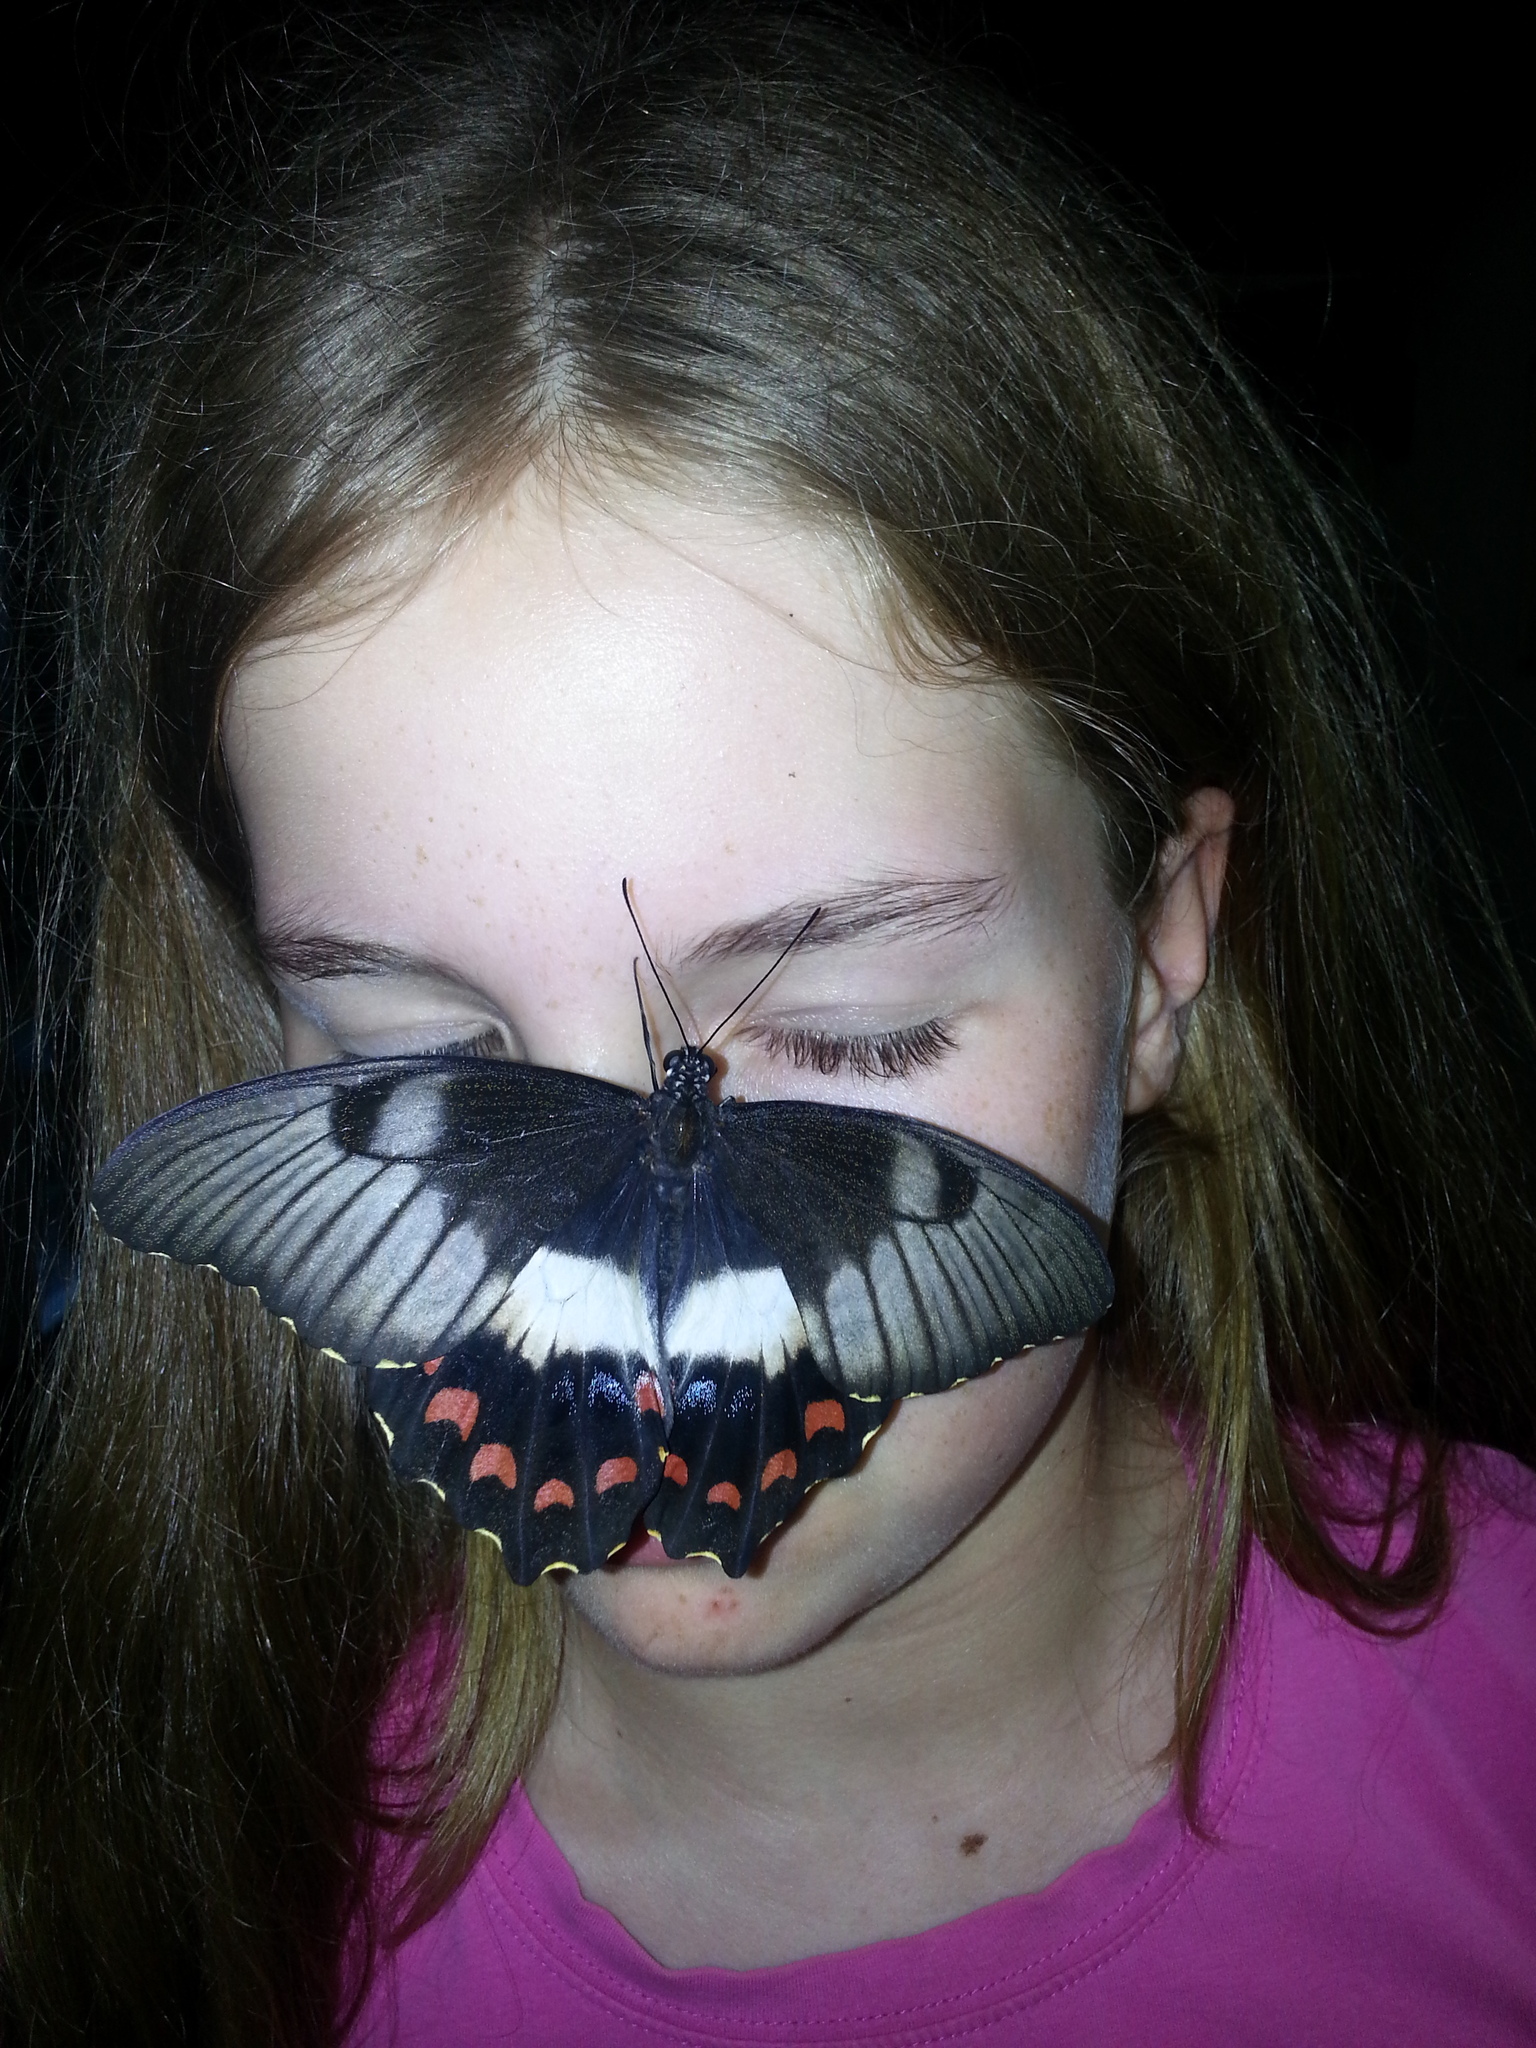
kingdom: Animalia
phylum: Arthropoda
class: Insecta
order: Lepidoptera
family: Papilionidae
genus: Papilio
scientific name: Papilio aegeus
